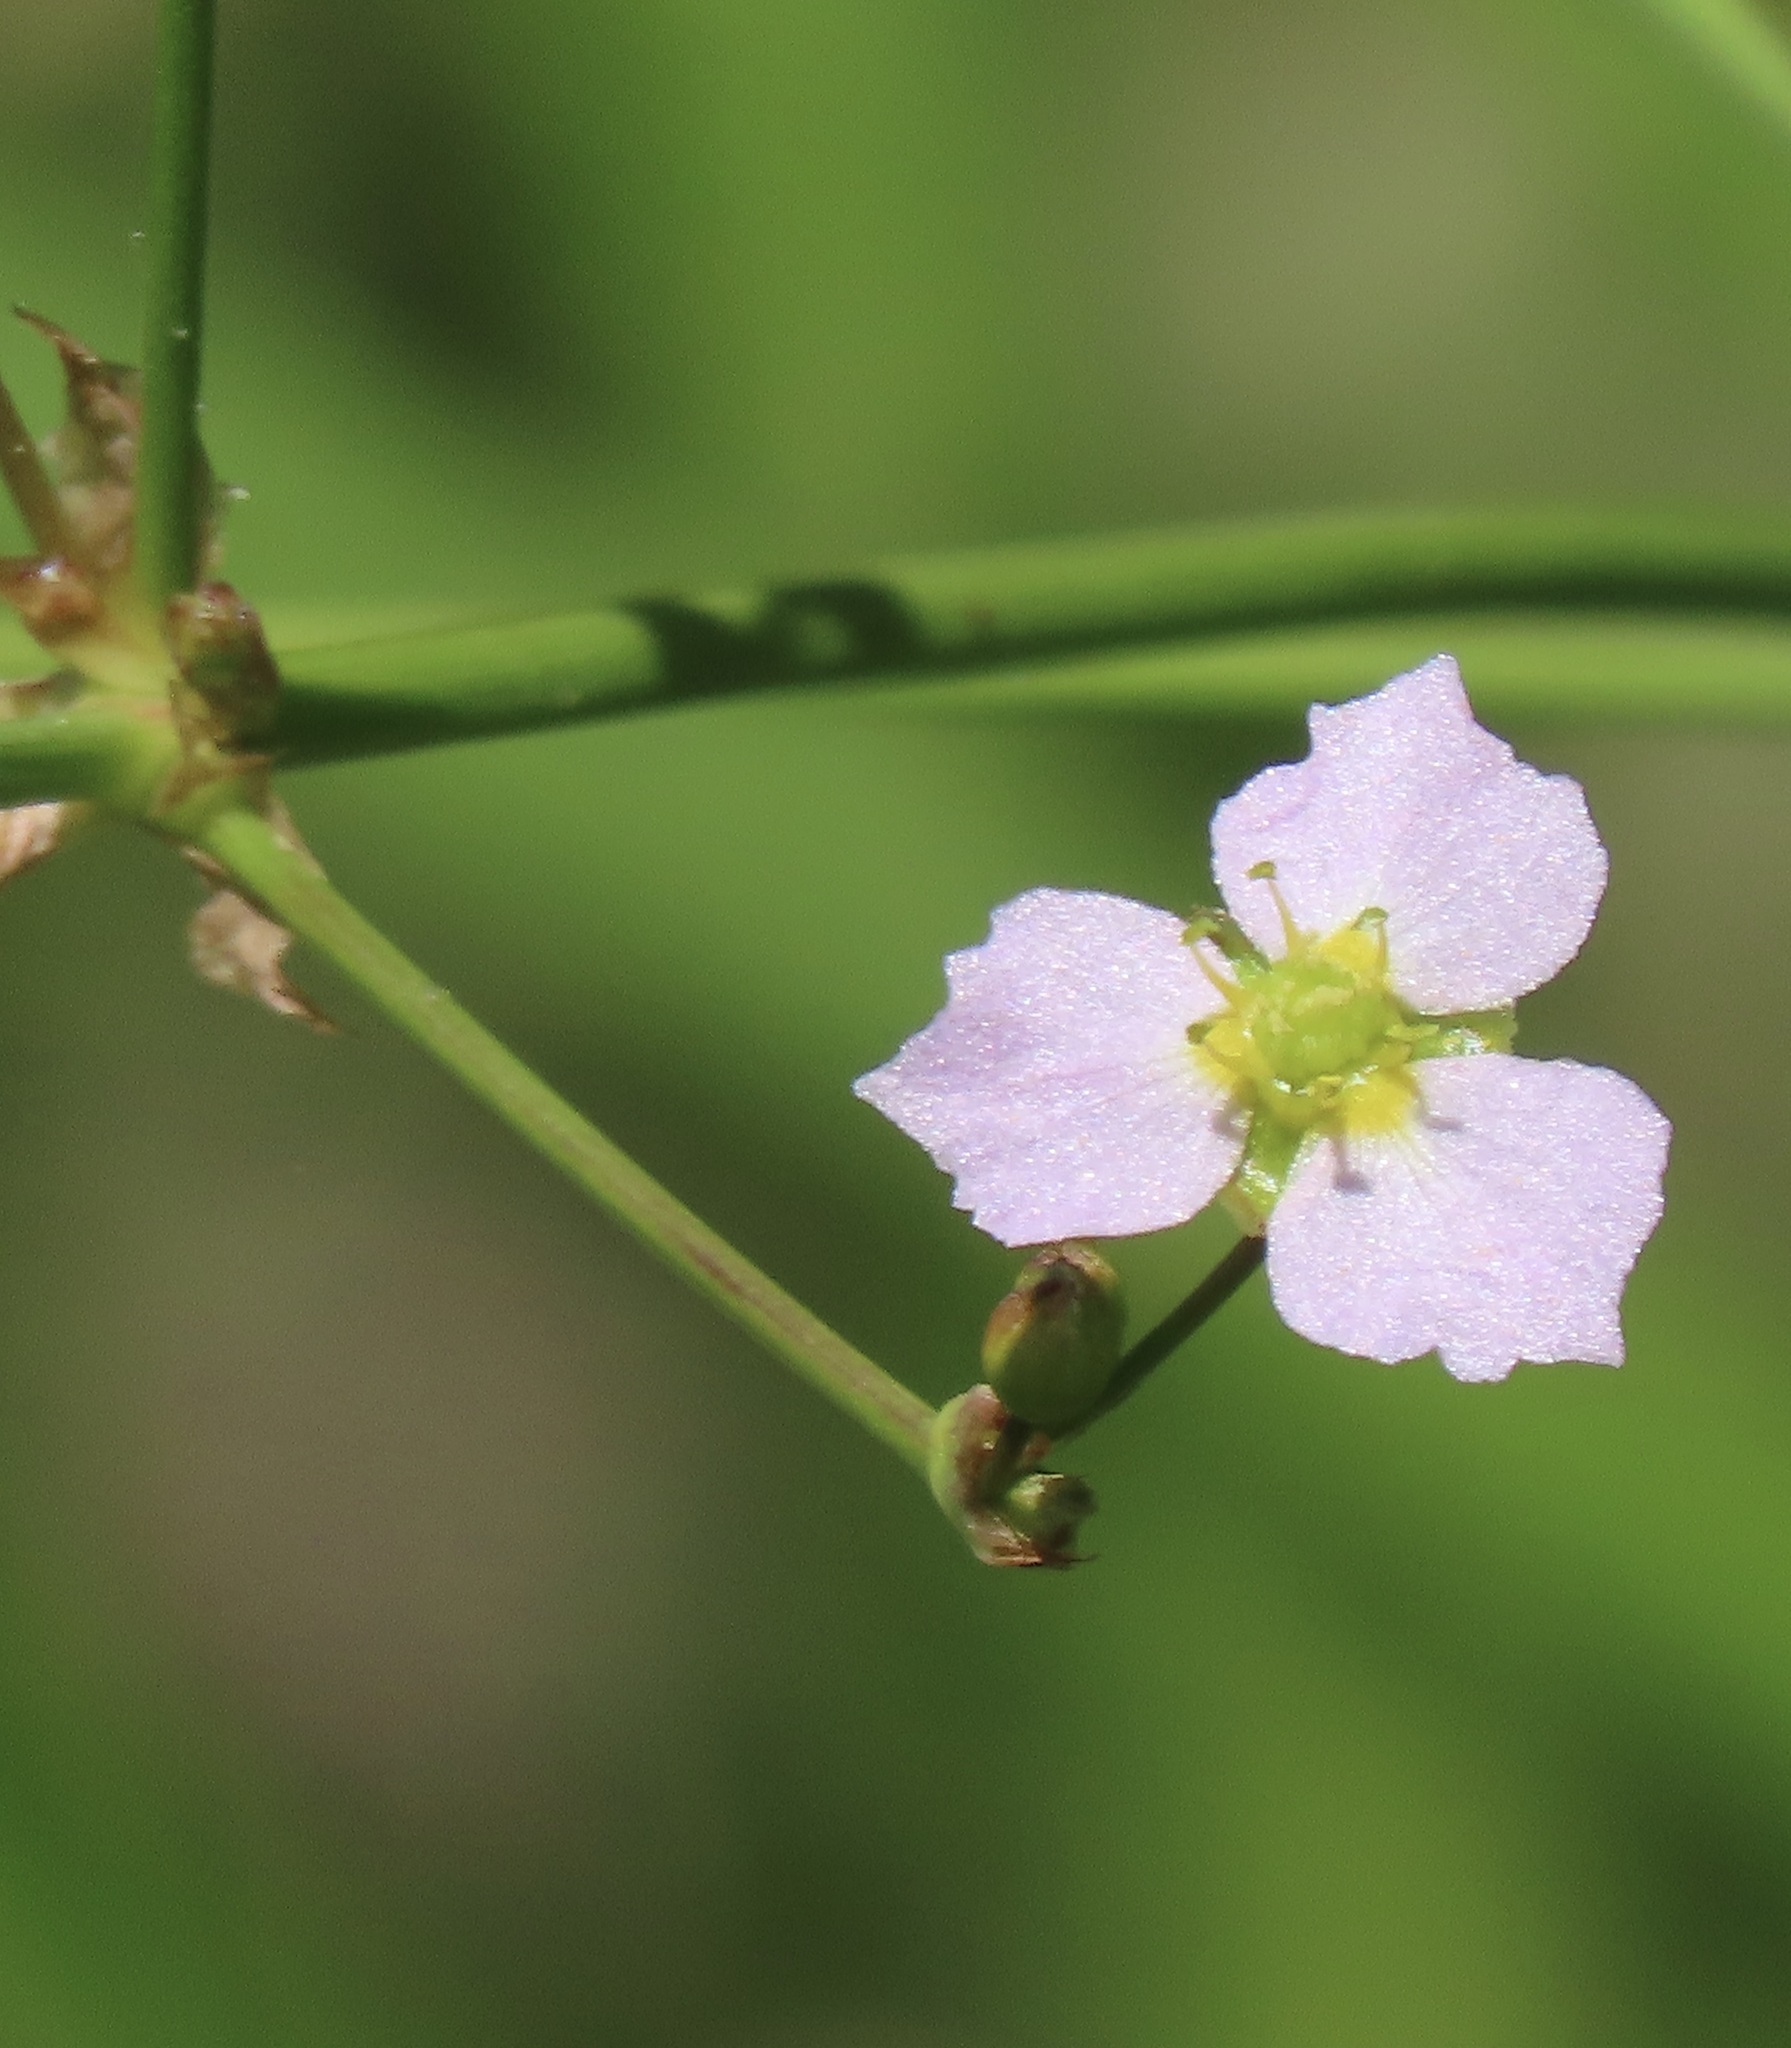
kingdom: Plantae
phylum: Tracheophyta
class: Liliopsida
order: Alismatales
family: Alismataceae
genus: Alisma
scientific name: Alisma triviale
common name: Northern water-plantain
